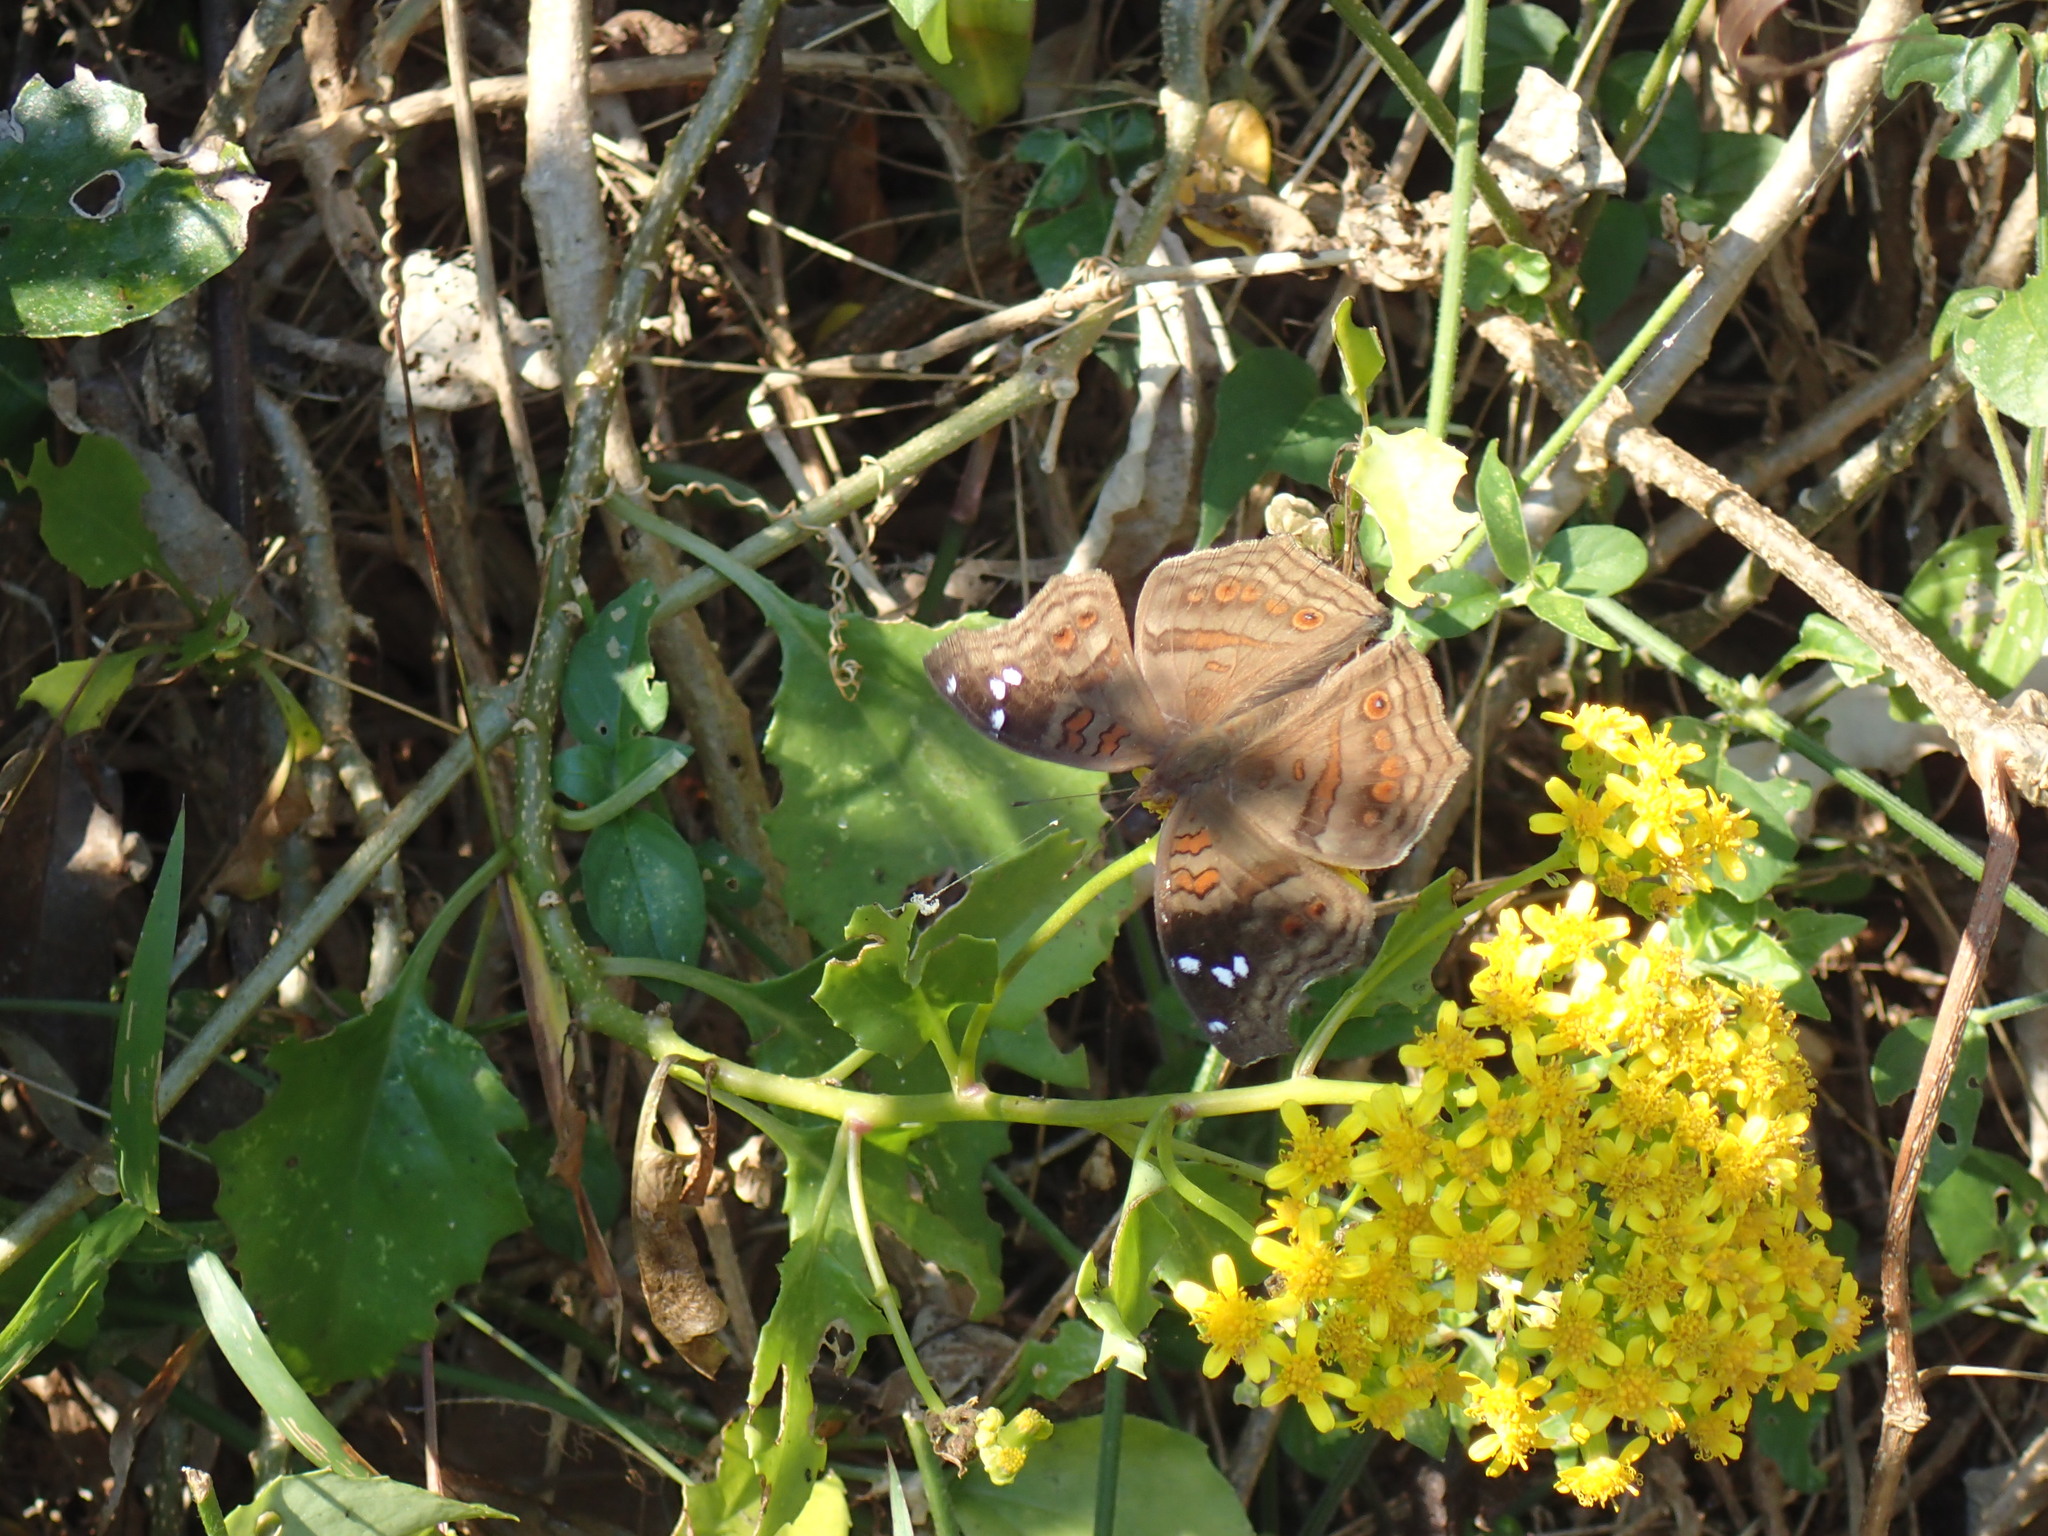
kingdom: Animalia
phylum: Arthropoda
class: Insecta
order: Lepidoptera
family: Nymphalidae
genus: Junonia
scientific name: Junonia natalica
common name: Brown pansy
